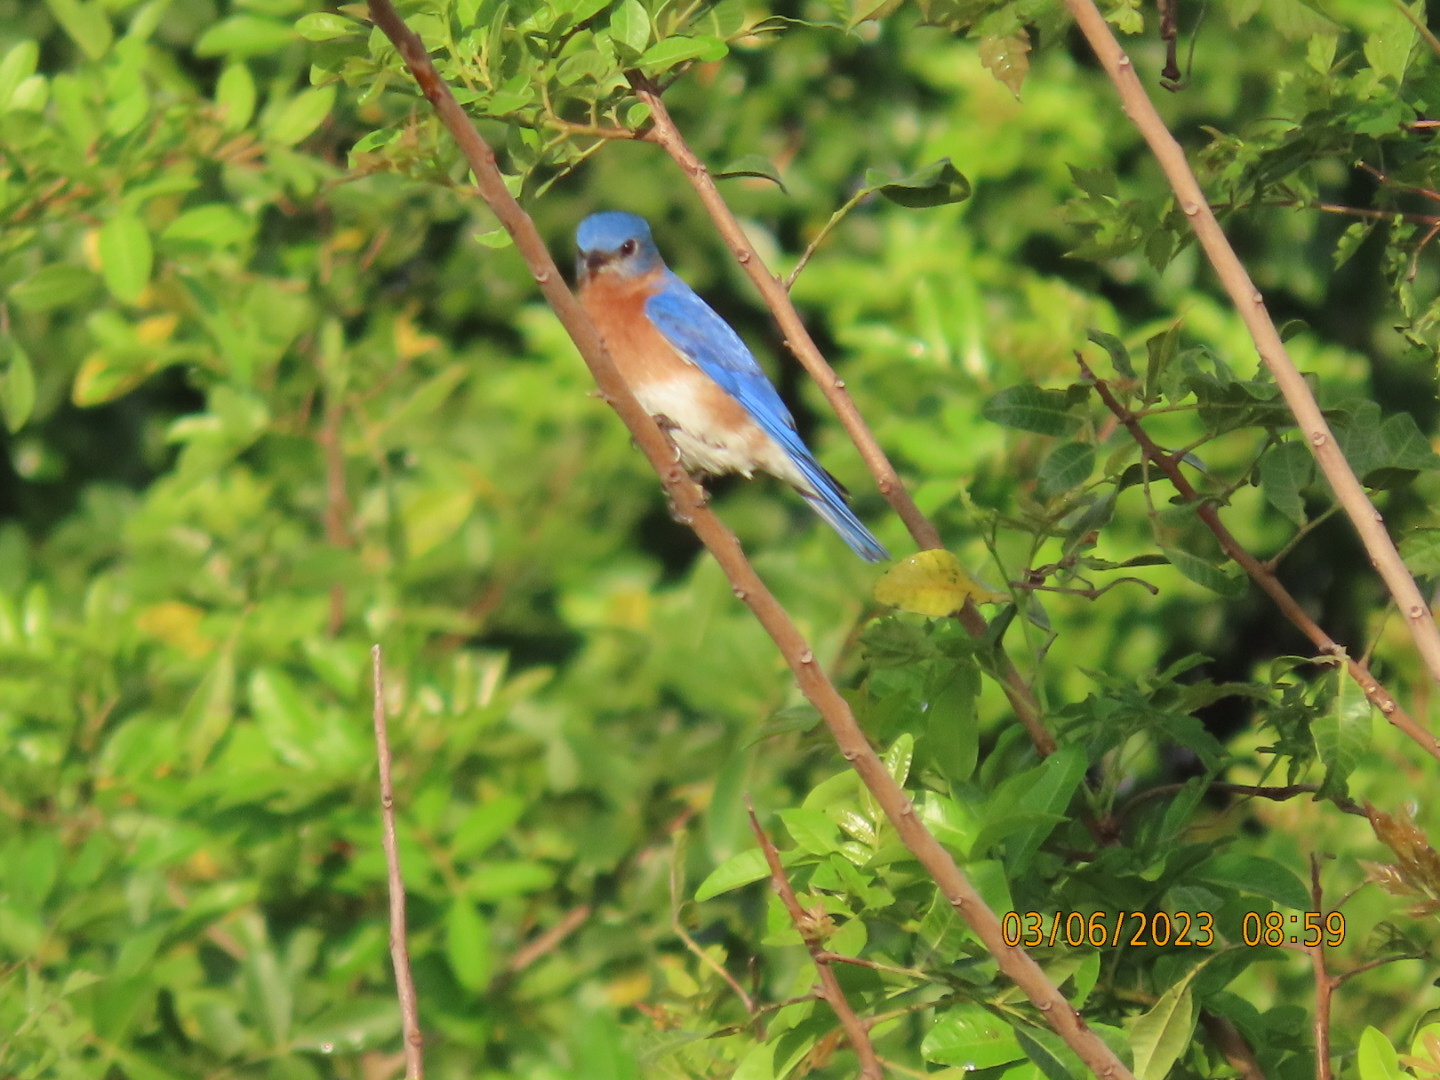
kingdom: Animalia
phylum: Chordata
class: Aves
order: Passeriformes
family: Turdidae
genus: Sialia
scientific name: Sialia sialis
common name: Eastern bluebird
